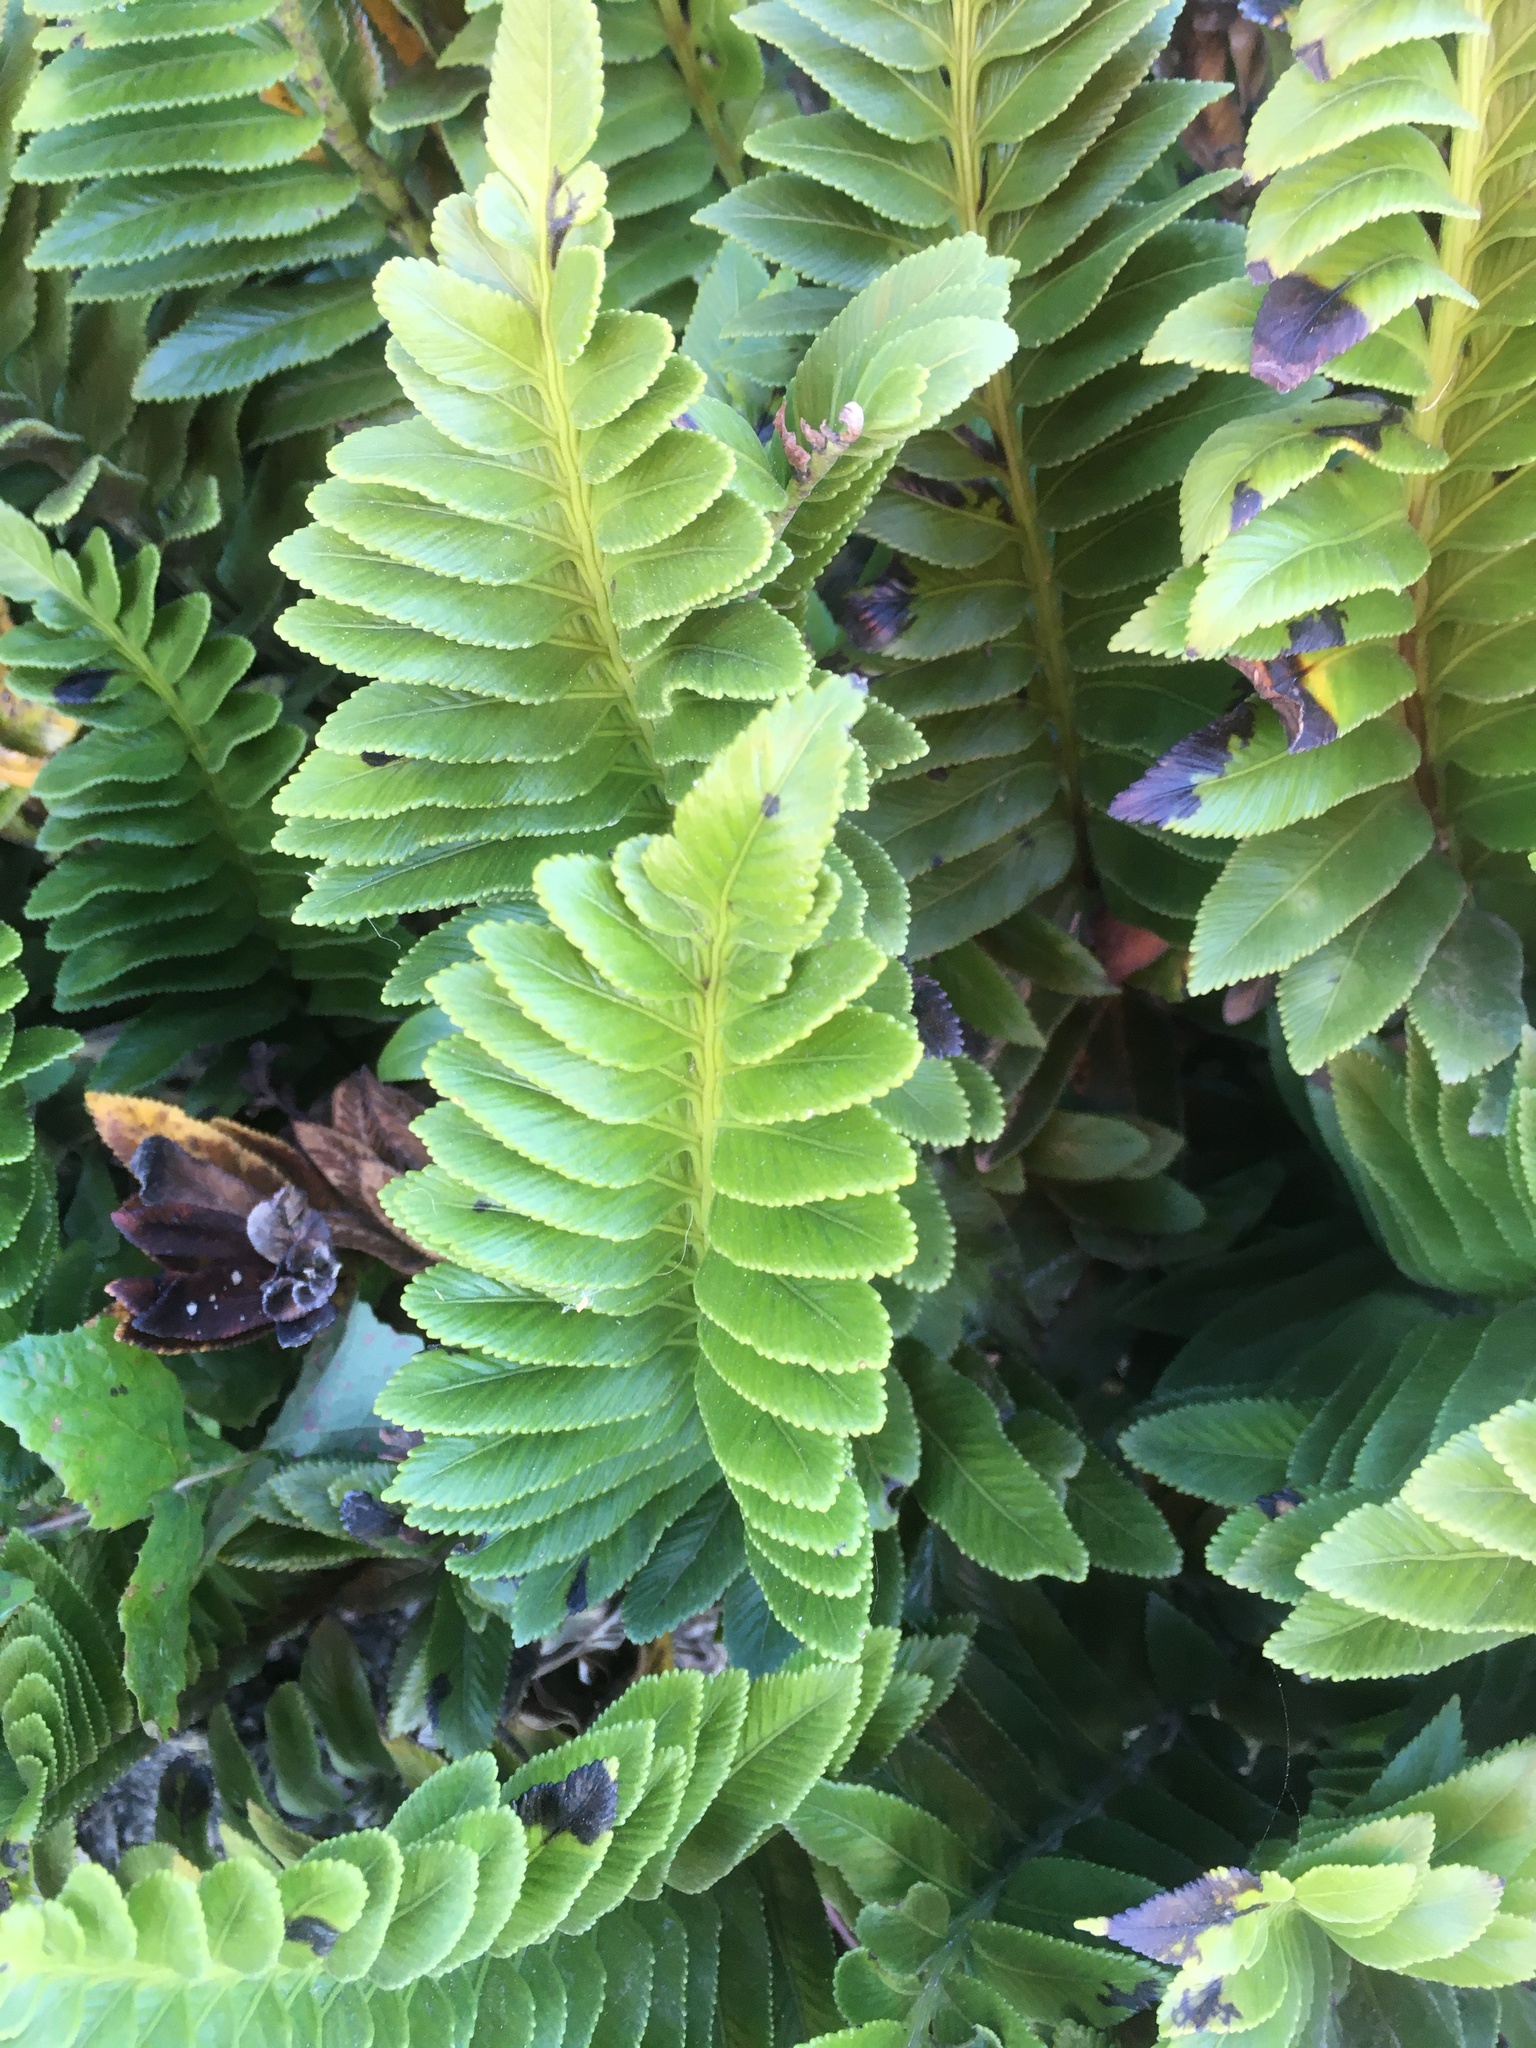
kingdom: Plantae
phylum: Tracheophyta
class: Polypodiopsida
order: Polypodiales
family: Aspleniaceae
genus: Asplenium
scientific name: Asplenium obtusatum
